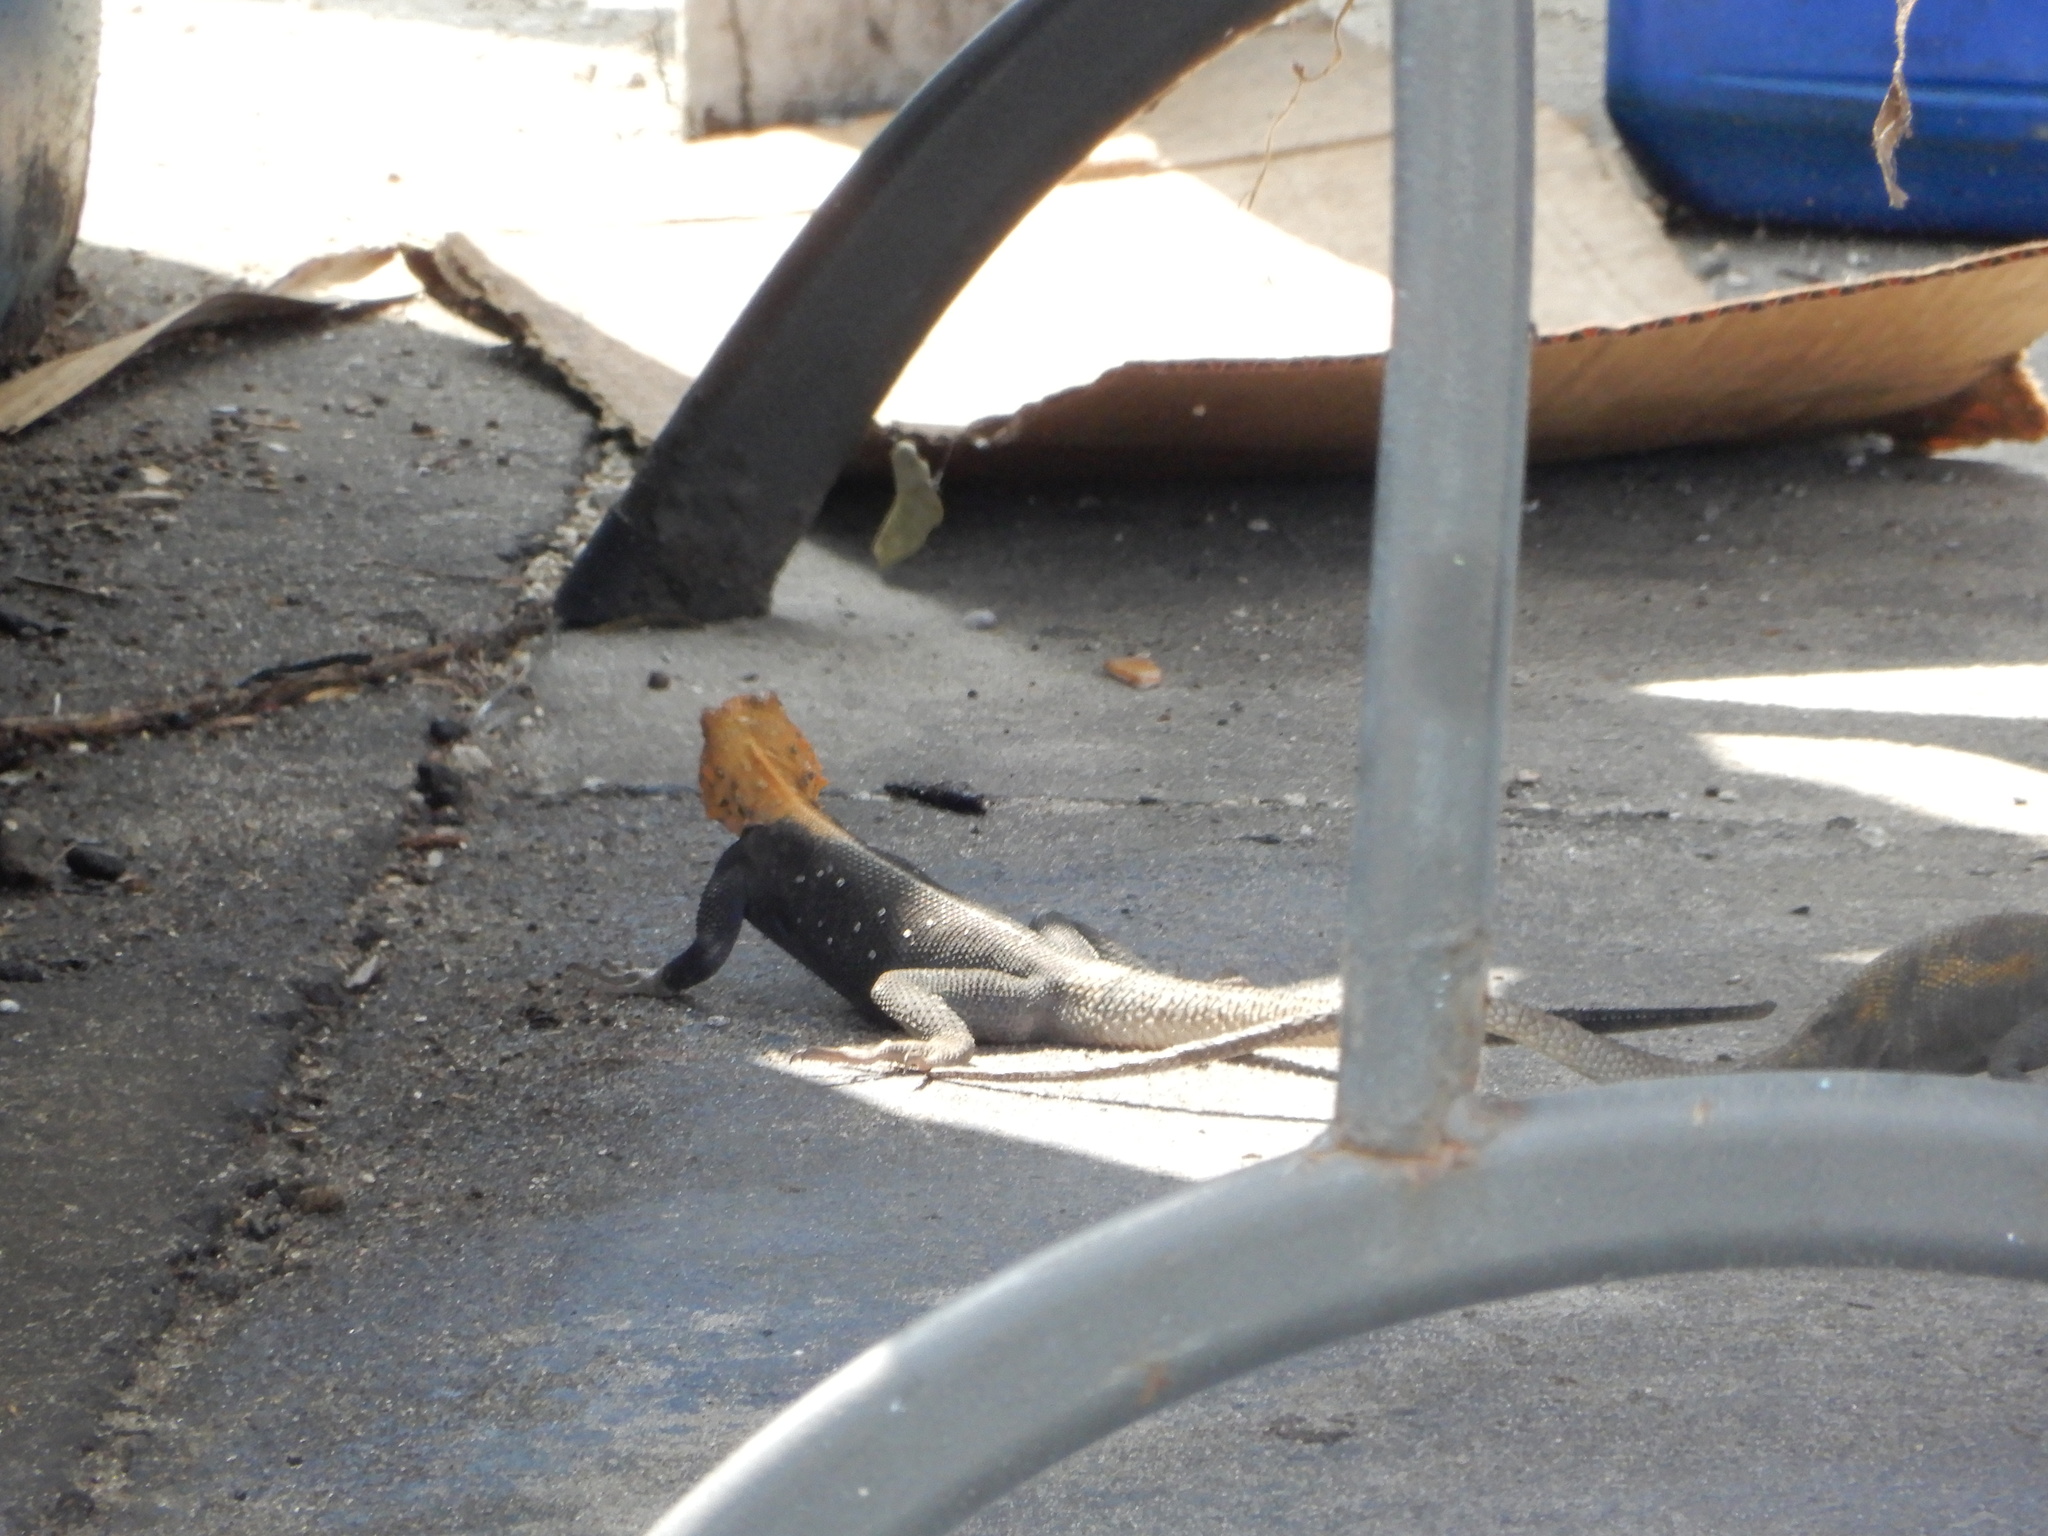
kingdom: Animalia
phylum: Chordata
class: Squamata
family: Agamidae
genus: Agama
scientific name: Agama picticauda
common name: Red-headed agama
